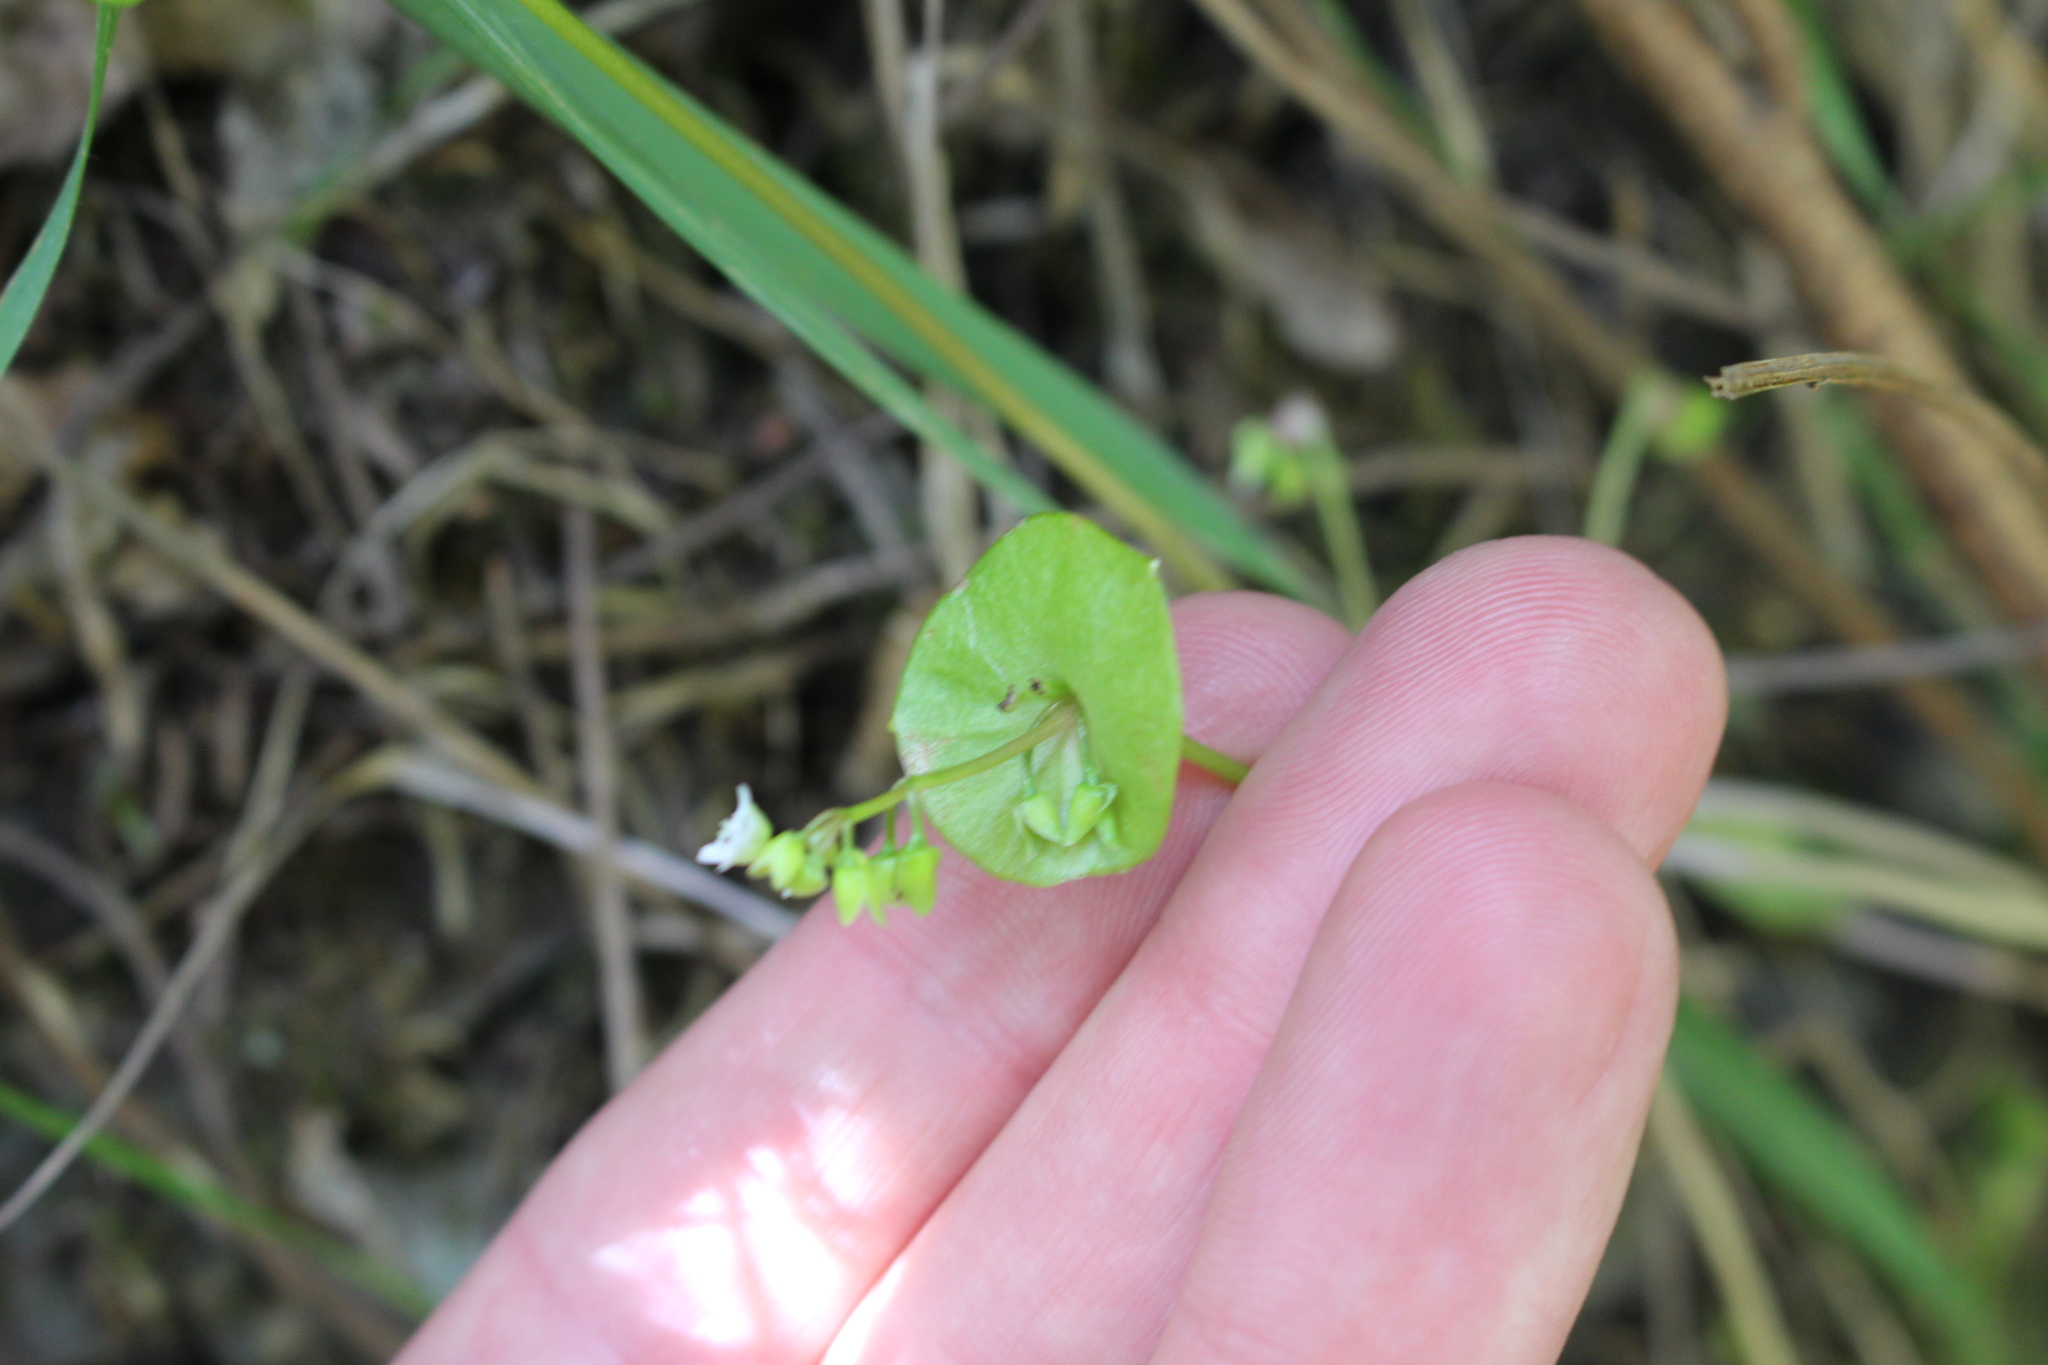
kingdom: Plantae
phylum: Tracheophyta
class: Magnoliopsida
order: Caryophyllales
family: Montiaceae
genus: Claytonia
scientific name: Claytonia perfoliata
